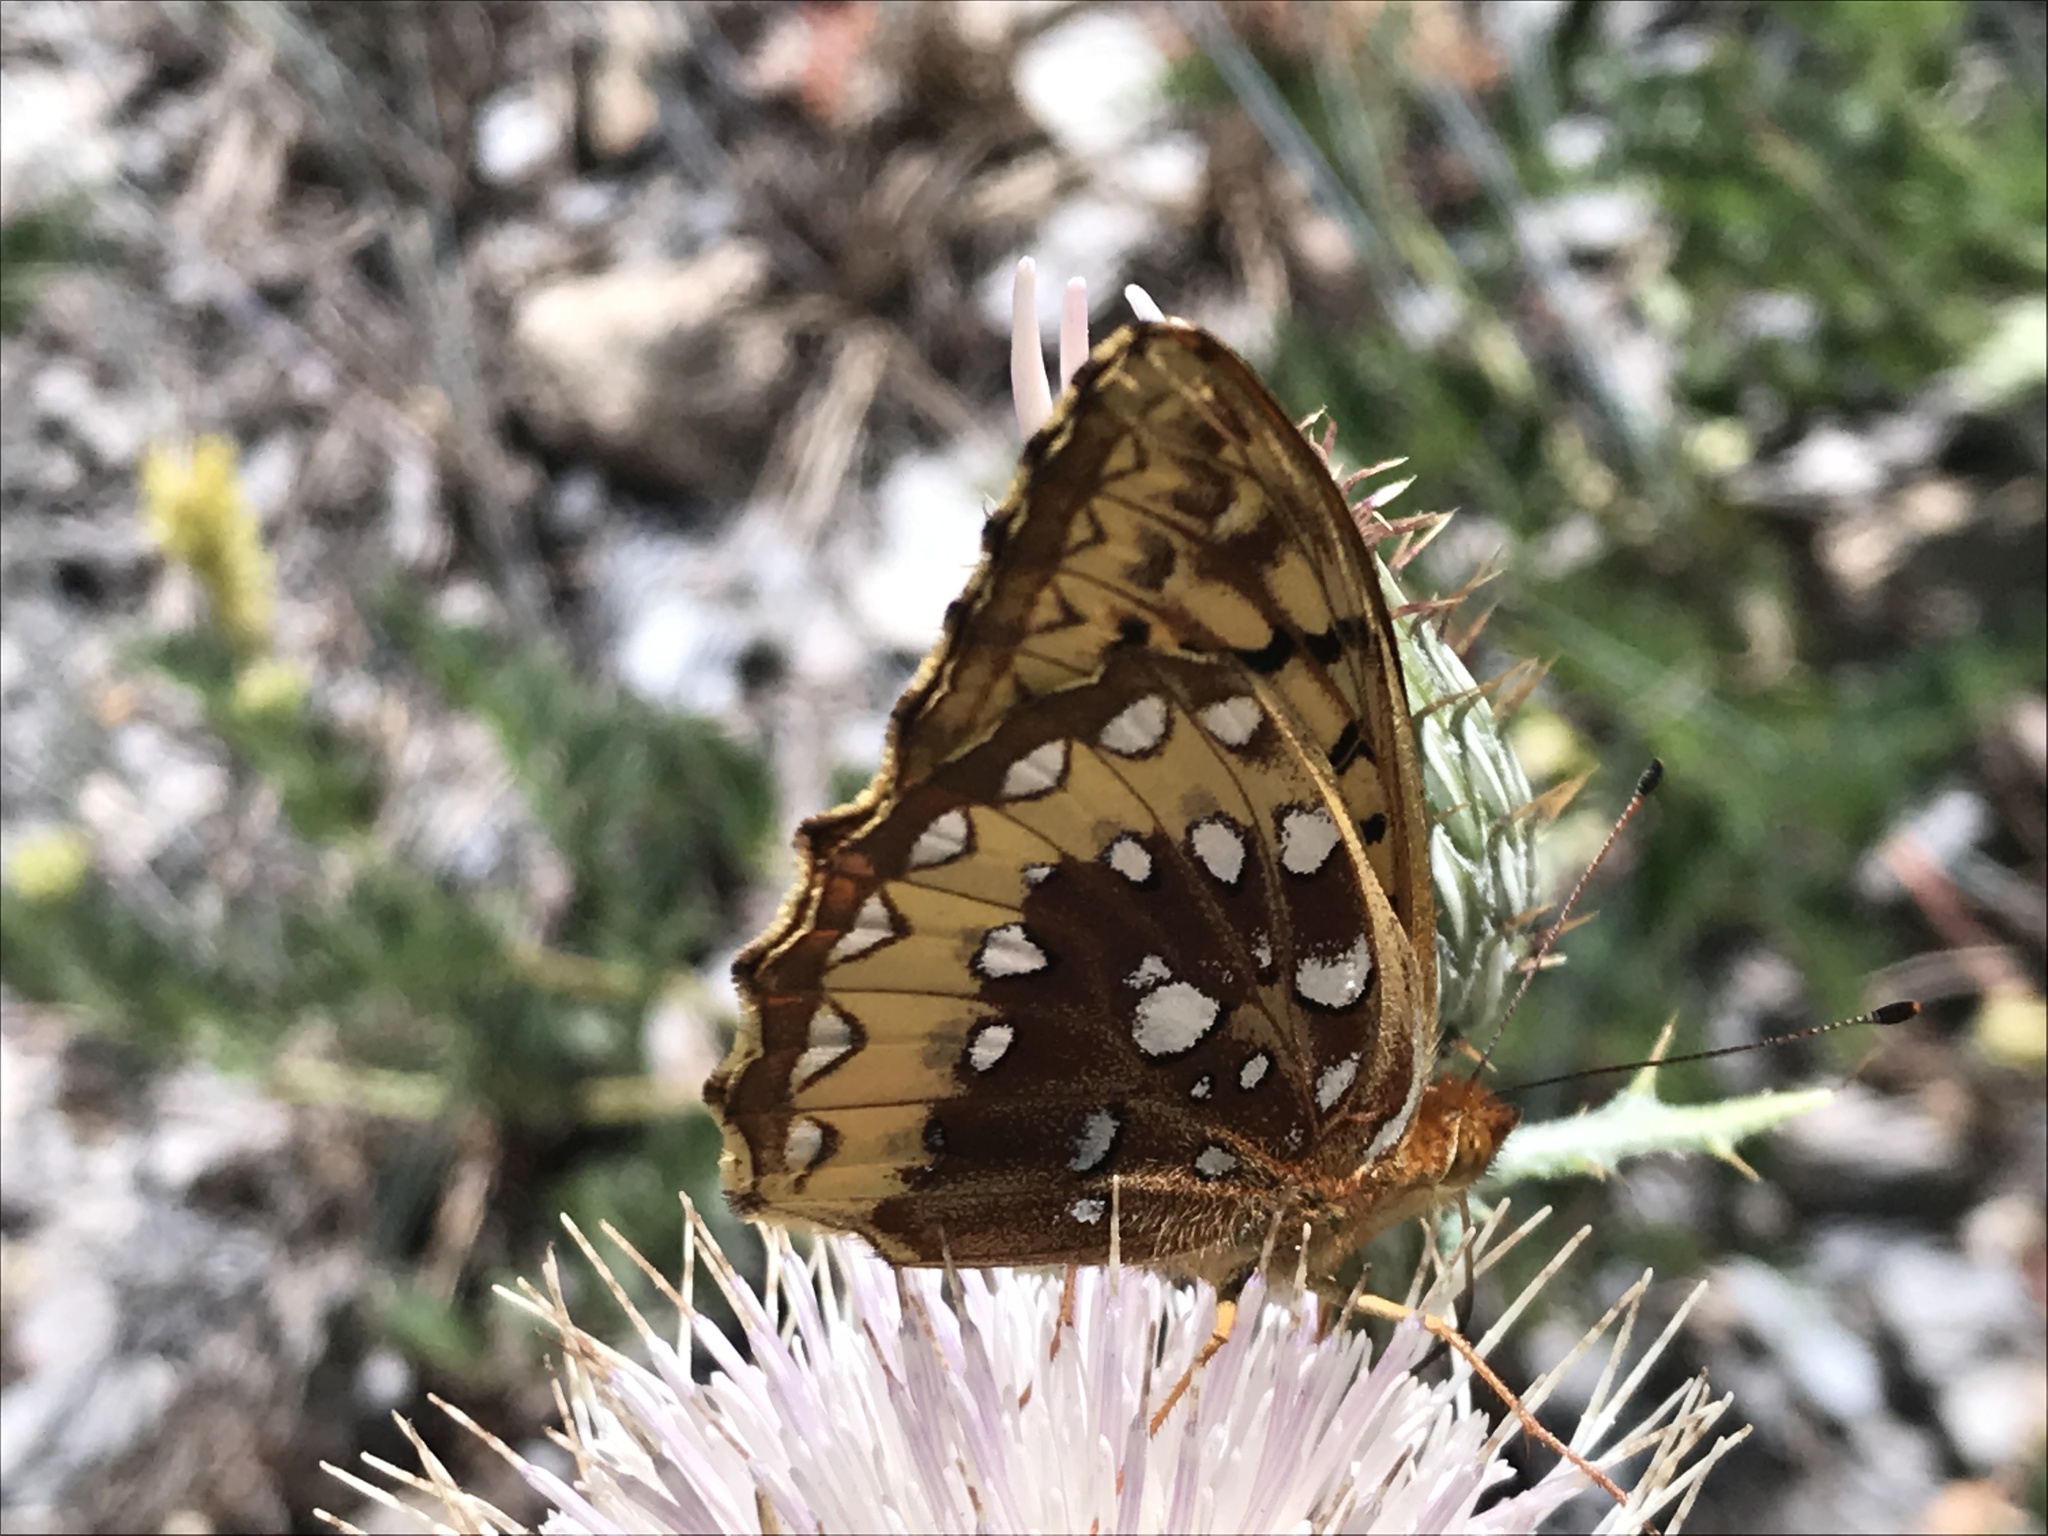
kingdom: Animalia
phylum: Arthropoda
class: Insecta
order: Lepidoptera
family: Nymphalidae
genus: Speyeria
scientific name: Speyeria cybele
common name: Great spangled fritillary
